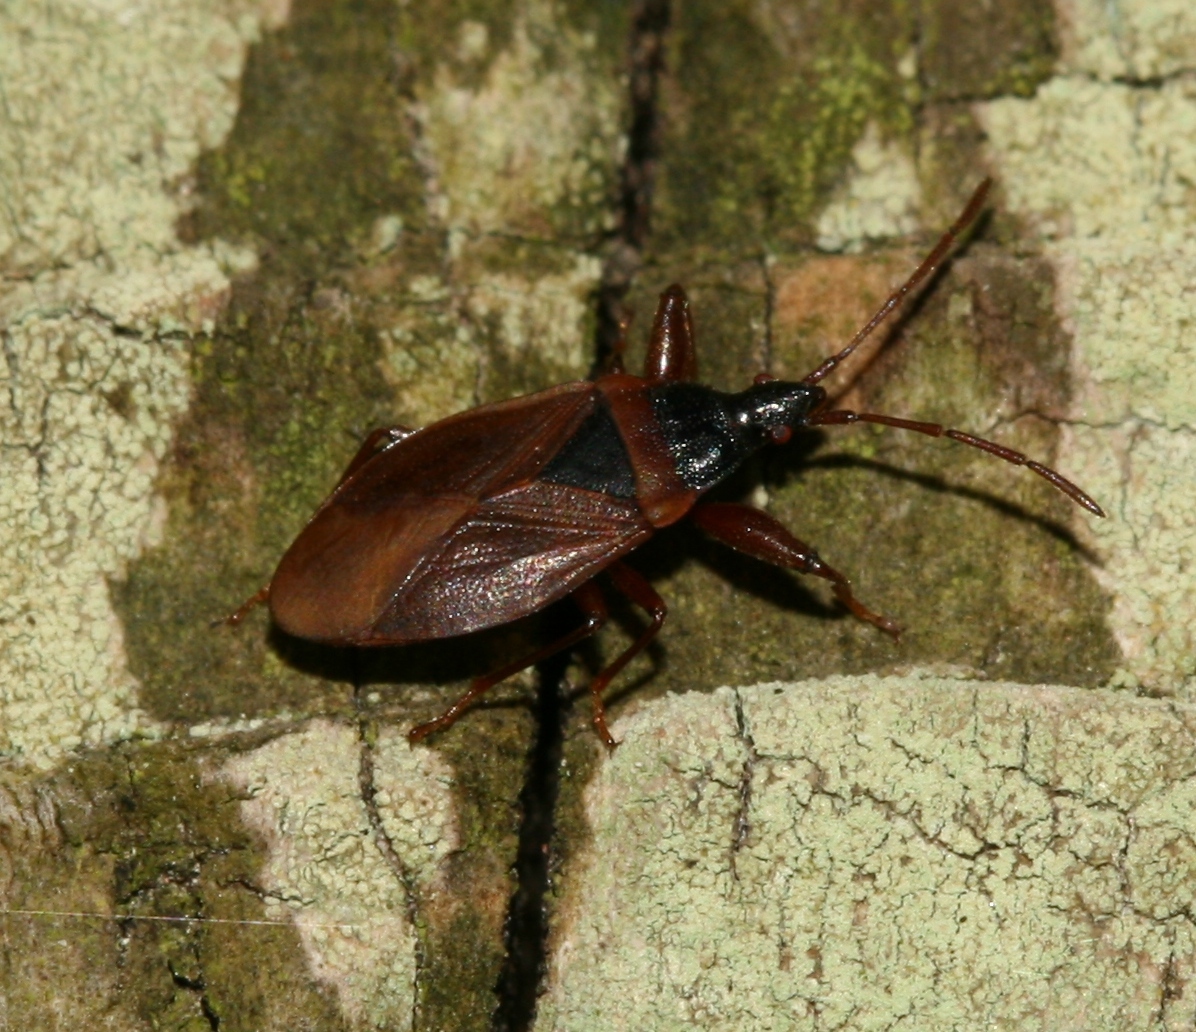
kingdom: Animalia
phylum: Arthropoda
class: Insecta
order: Hemiptera
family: Rhyparochromidae
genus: Gastrodes
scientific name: Gastrodes grossipes
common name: Pine cone bug
